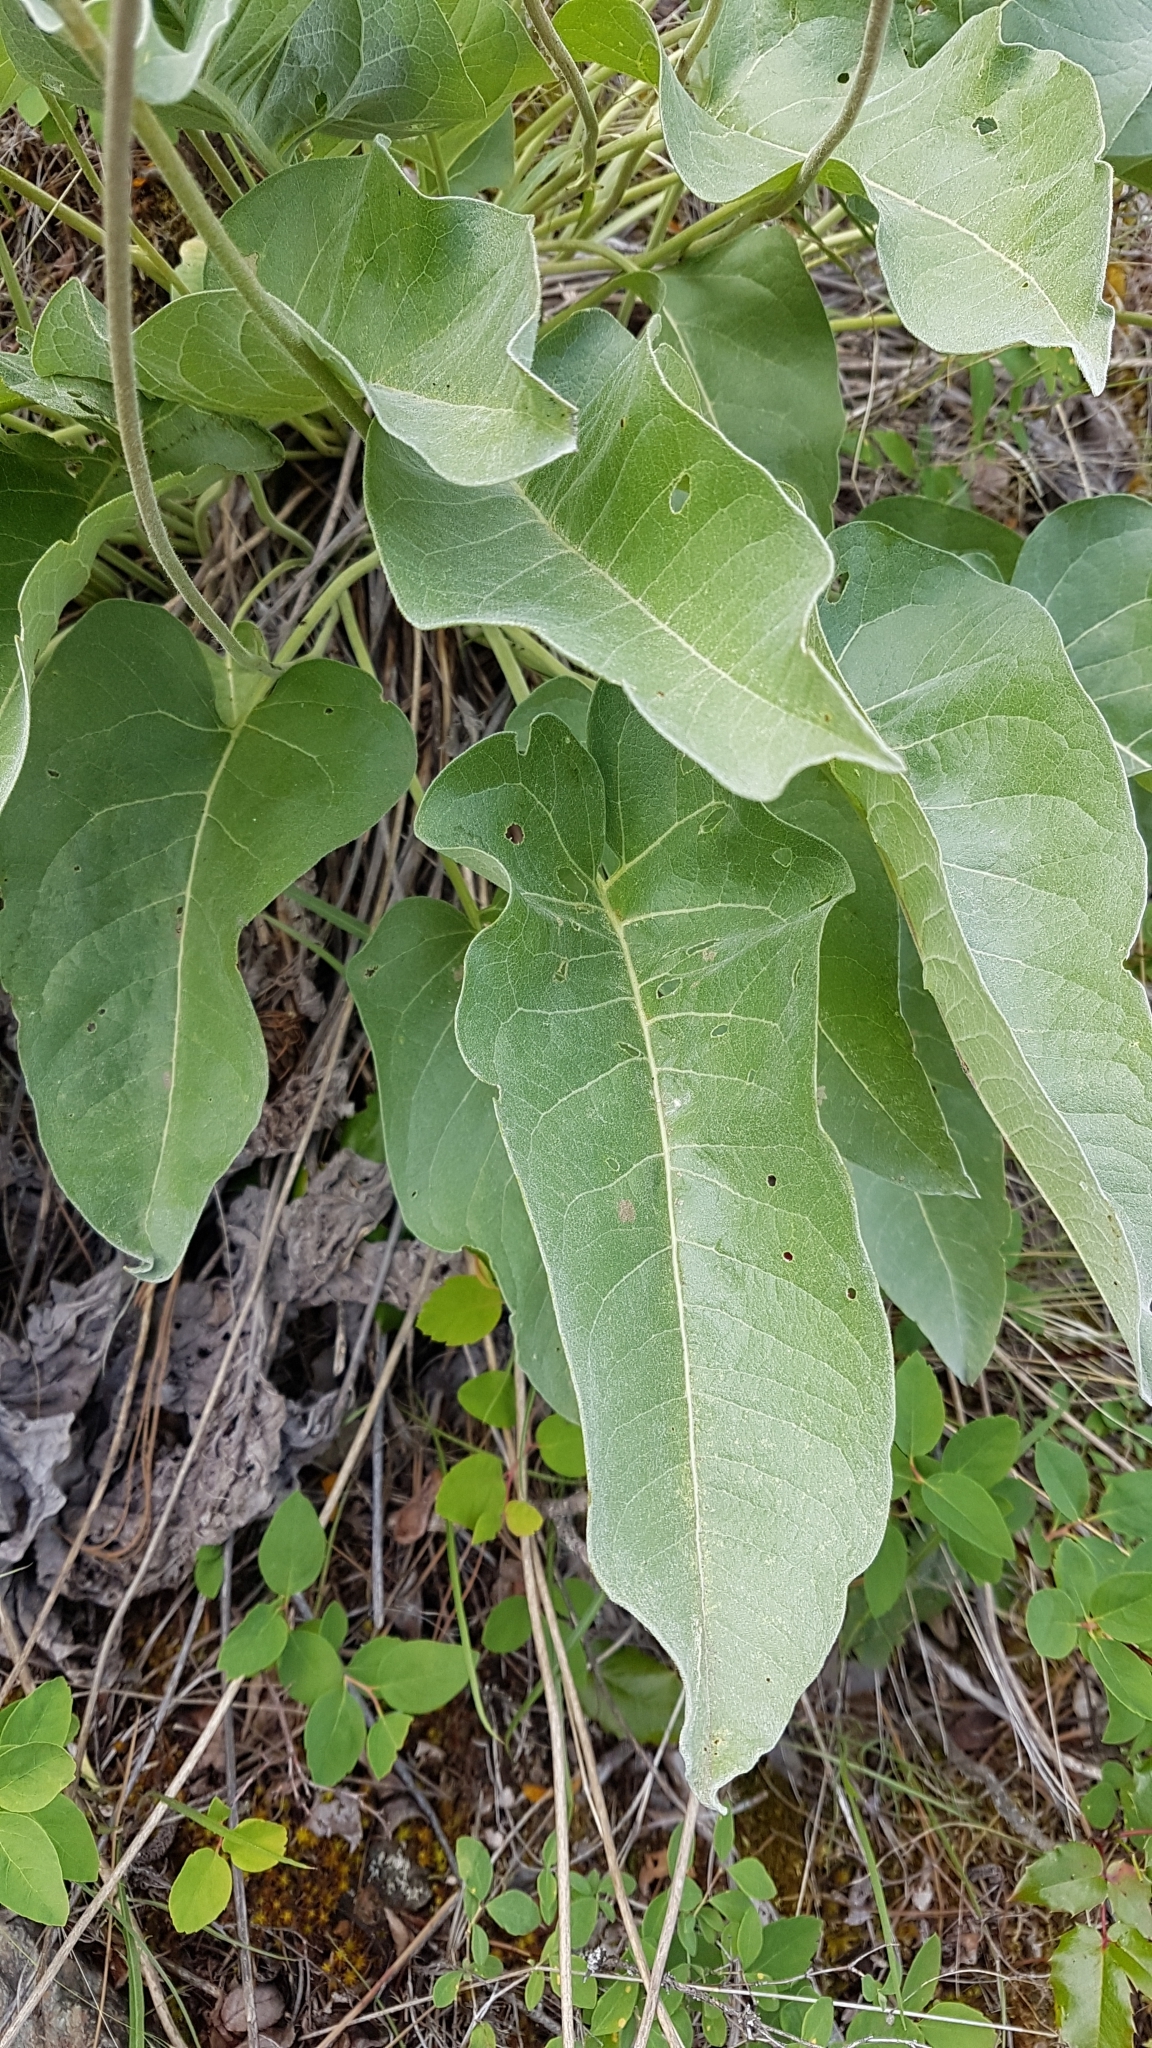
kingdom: Plantae
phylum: Tracheophyta
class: Magnoliopsida
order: Asterales
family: Asteraceae
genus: Wyethia
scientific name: Wyethia sagittata
